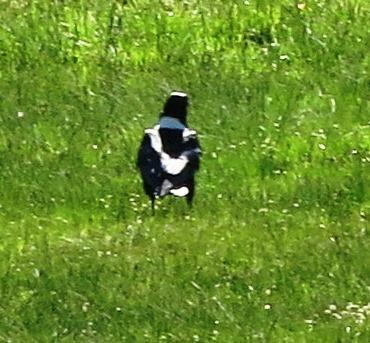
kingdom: Animalia
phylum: Chordata
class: Aves
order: Passeriformes
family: Corvidae
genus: Corvus
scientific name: Corvus albus
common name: Pied crow
